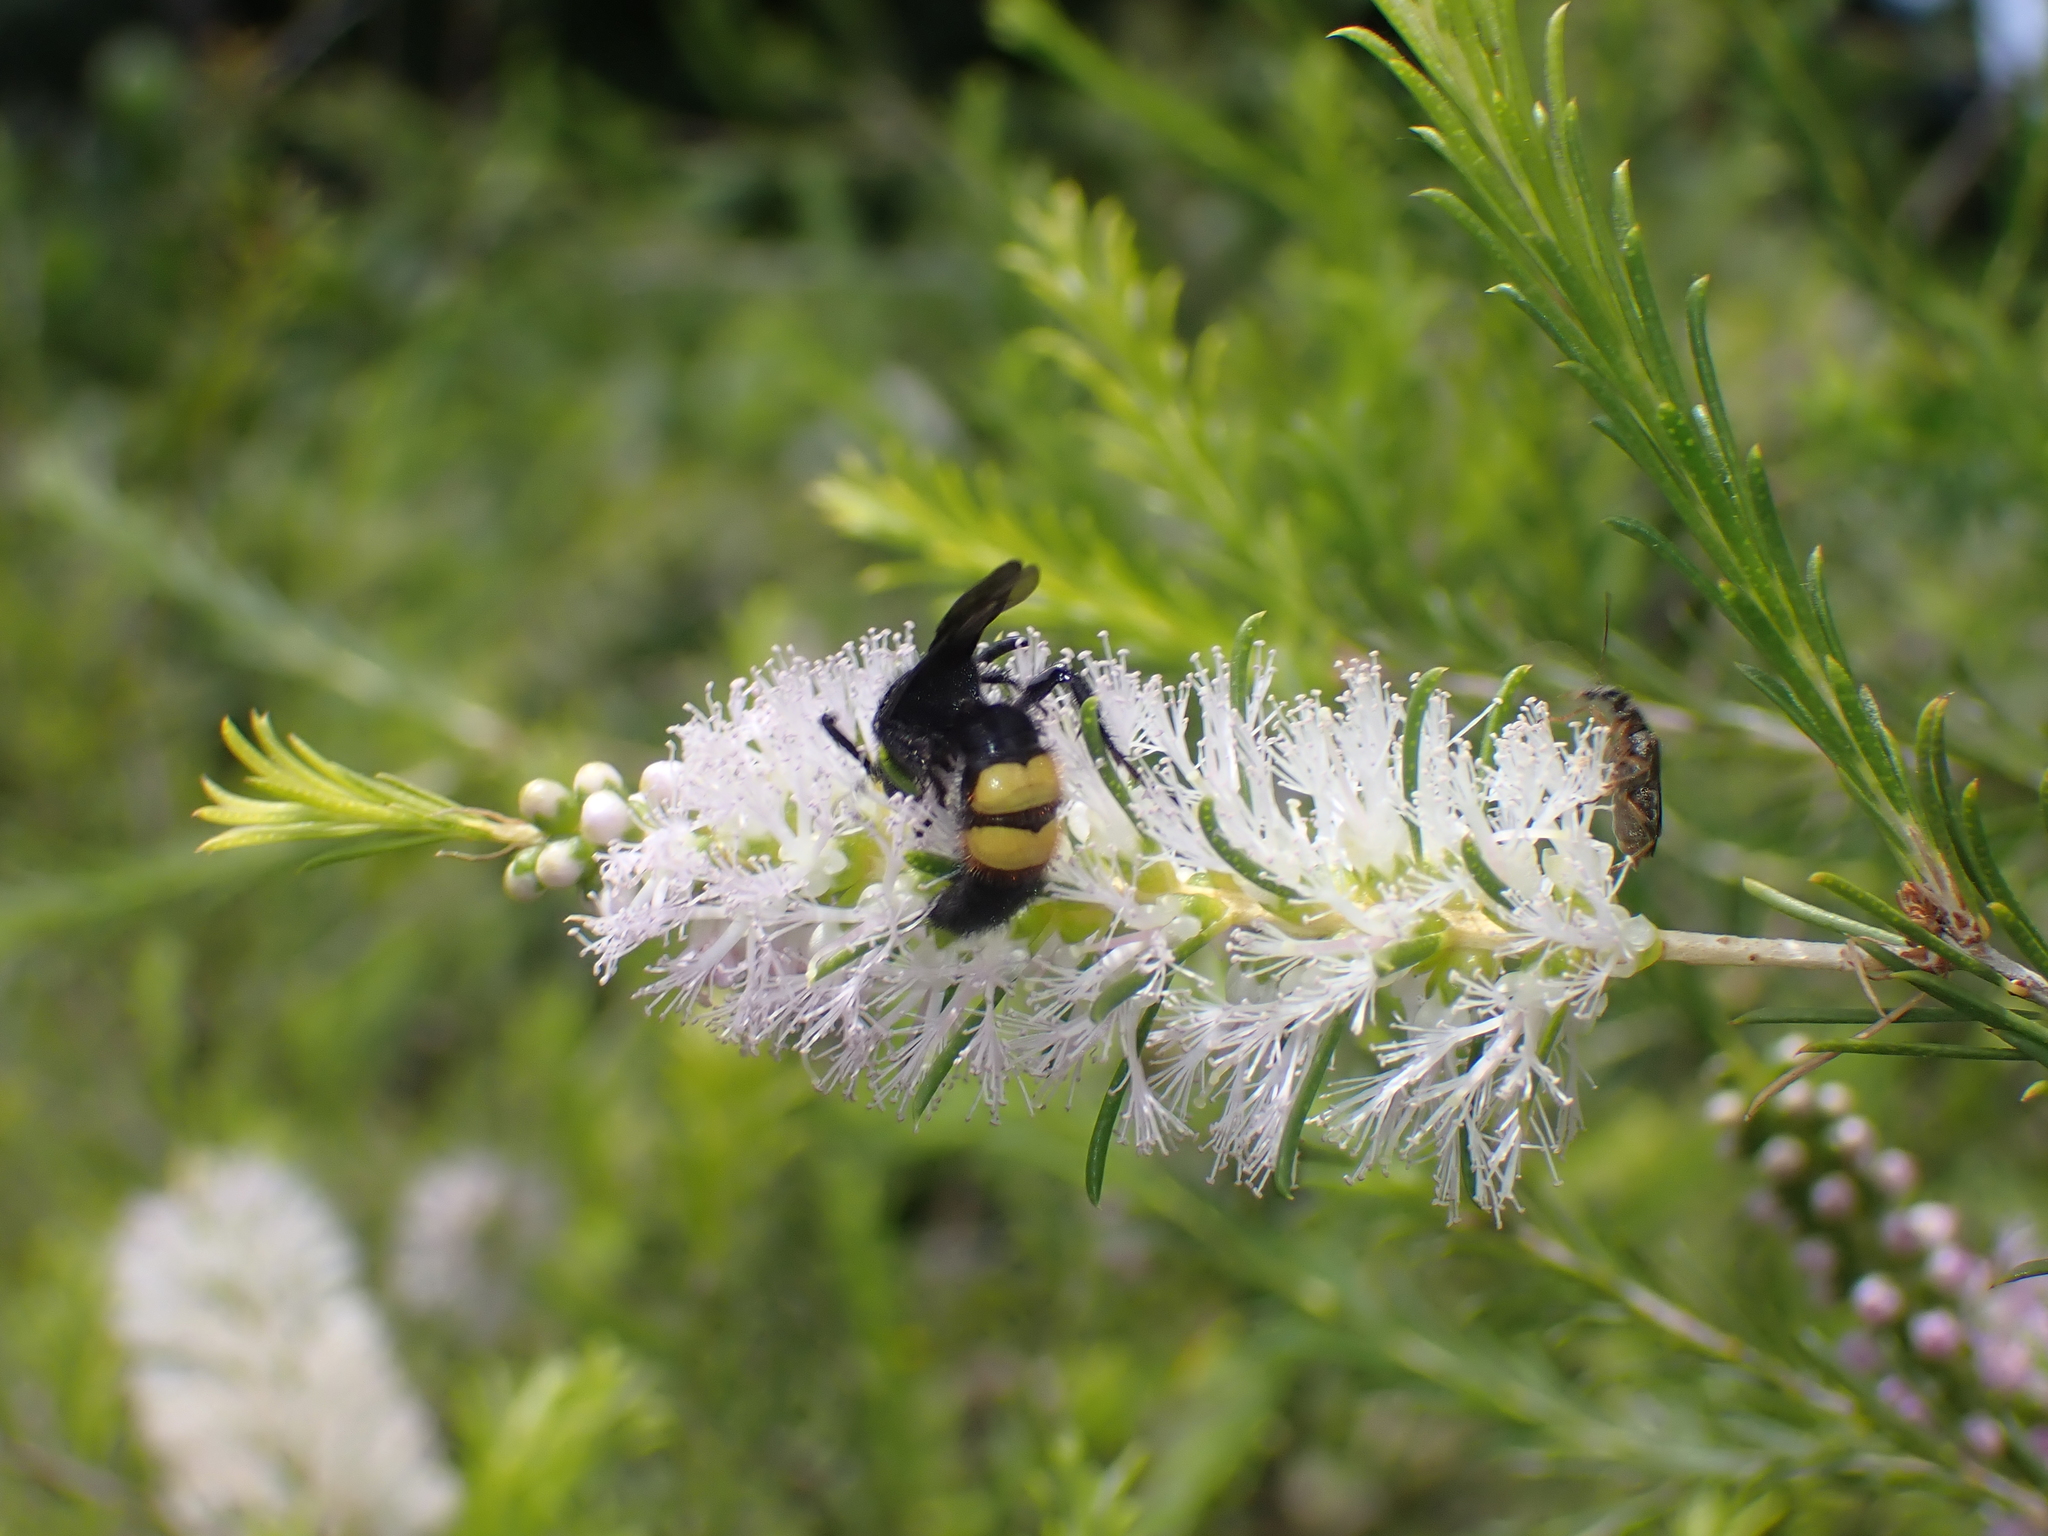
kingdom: Animalia
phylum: Arthropoda
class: Insecta
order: Hymenoptera
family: Scoliidae
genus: Scolia
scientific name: Scolia hirta
